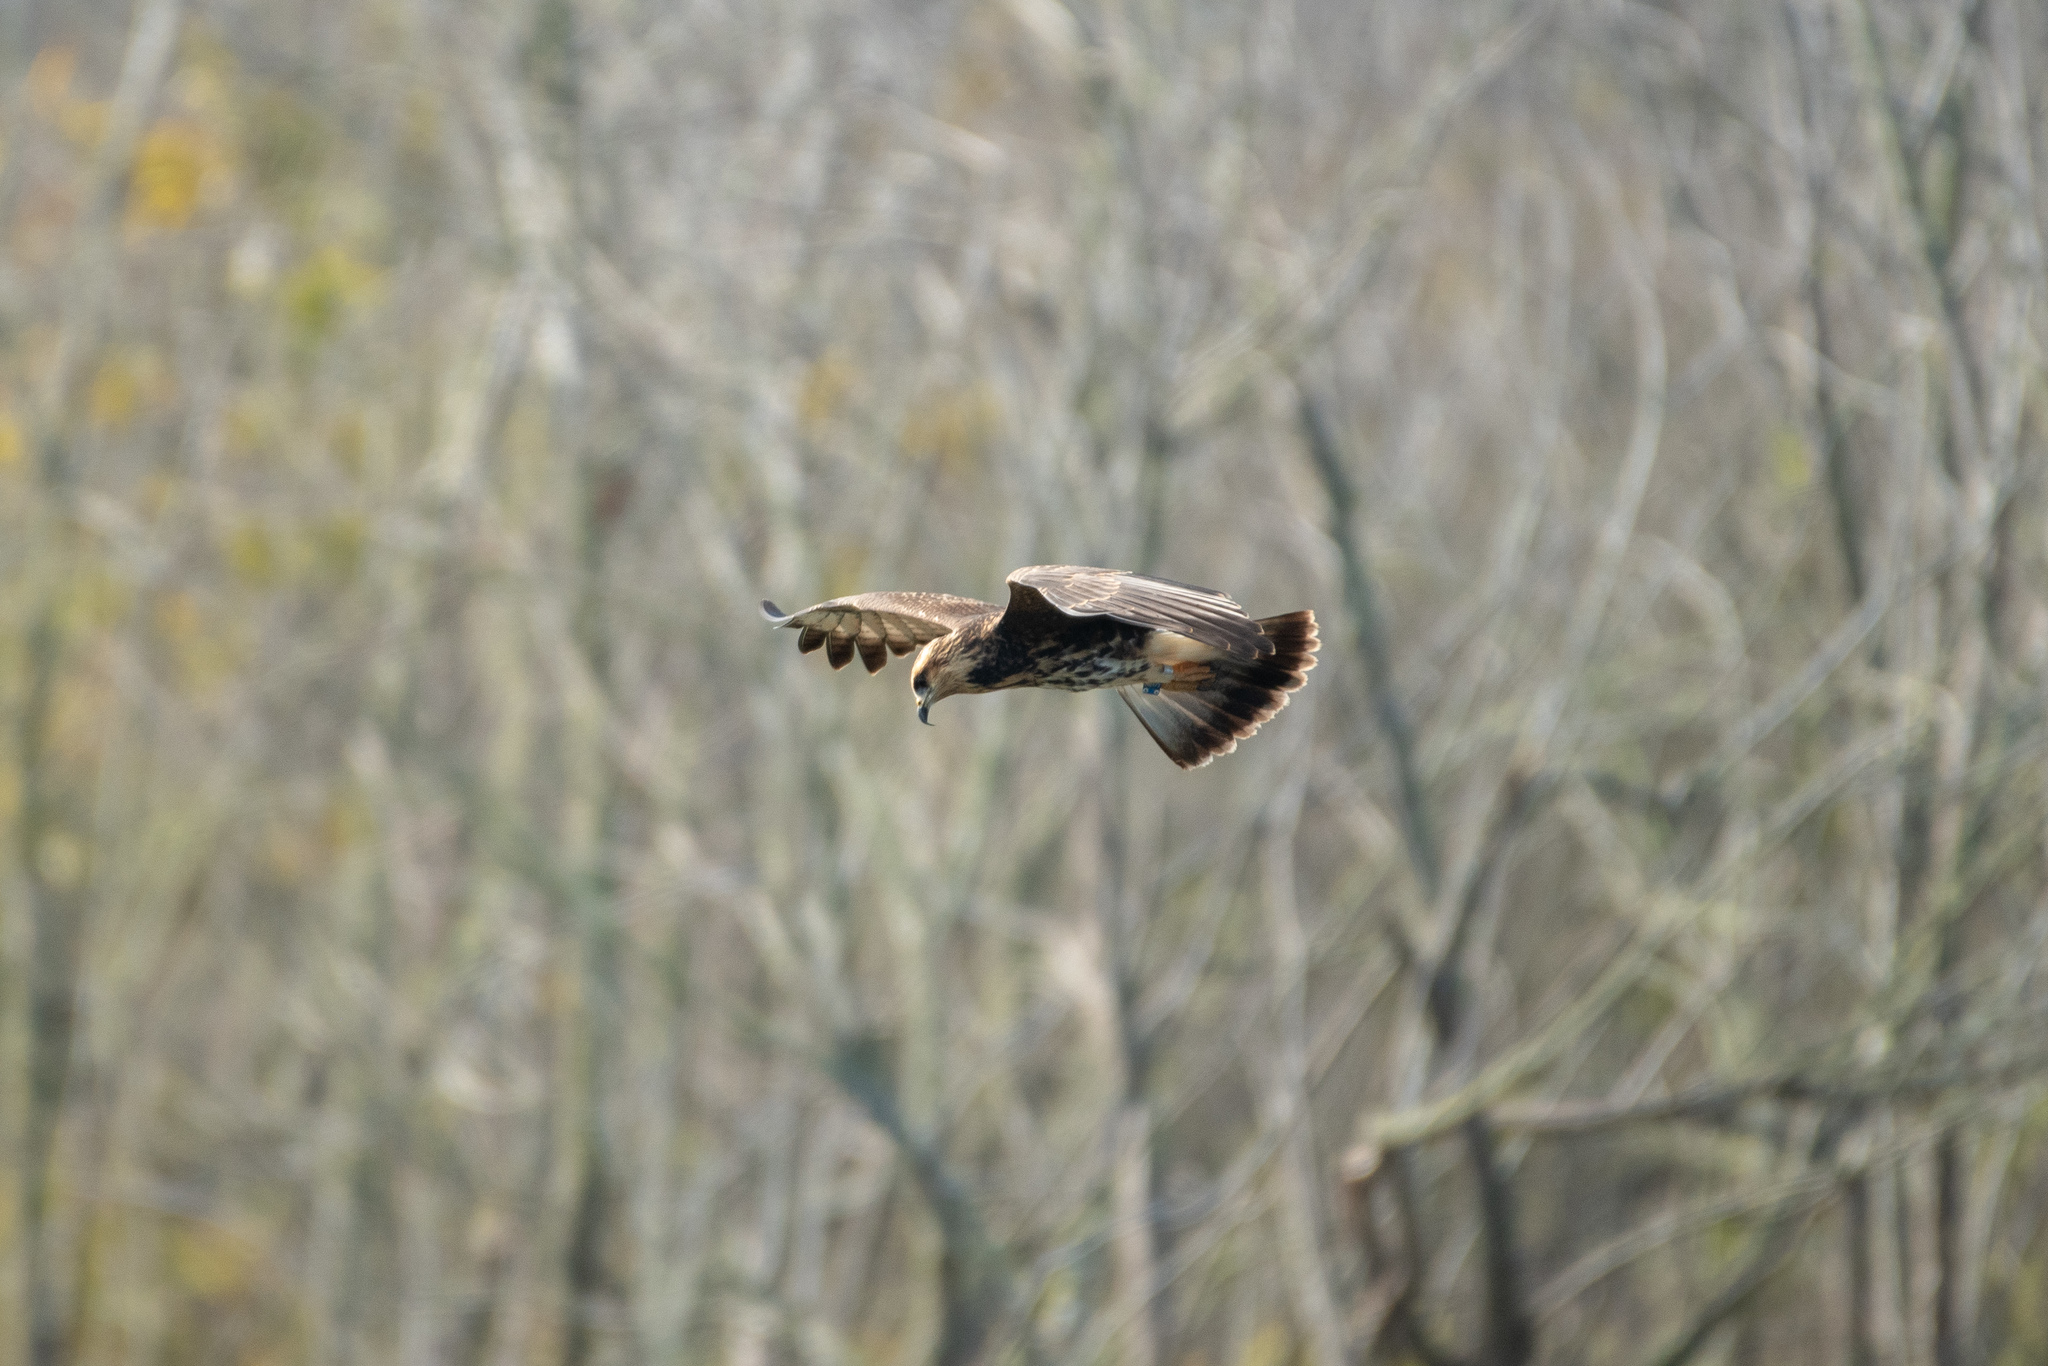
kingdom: Animalia
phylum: Chordata
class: Aves
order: Accipitriformes
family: Accipitridae
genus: Rostrhamus
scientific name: Rostrhamus sociabilis
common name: Snail kite
